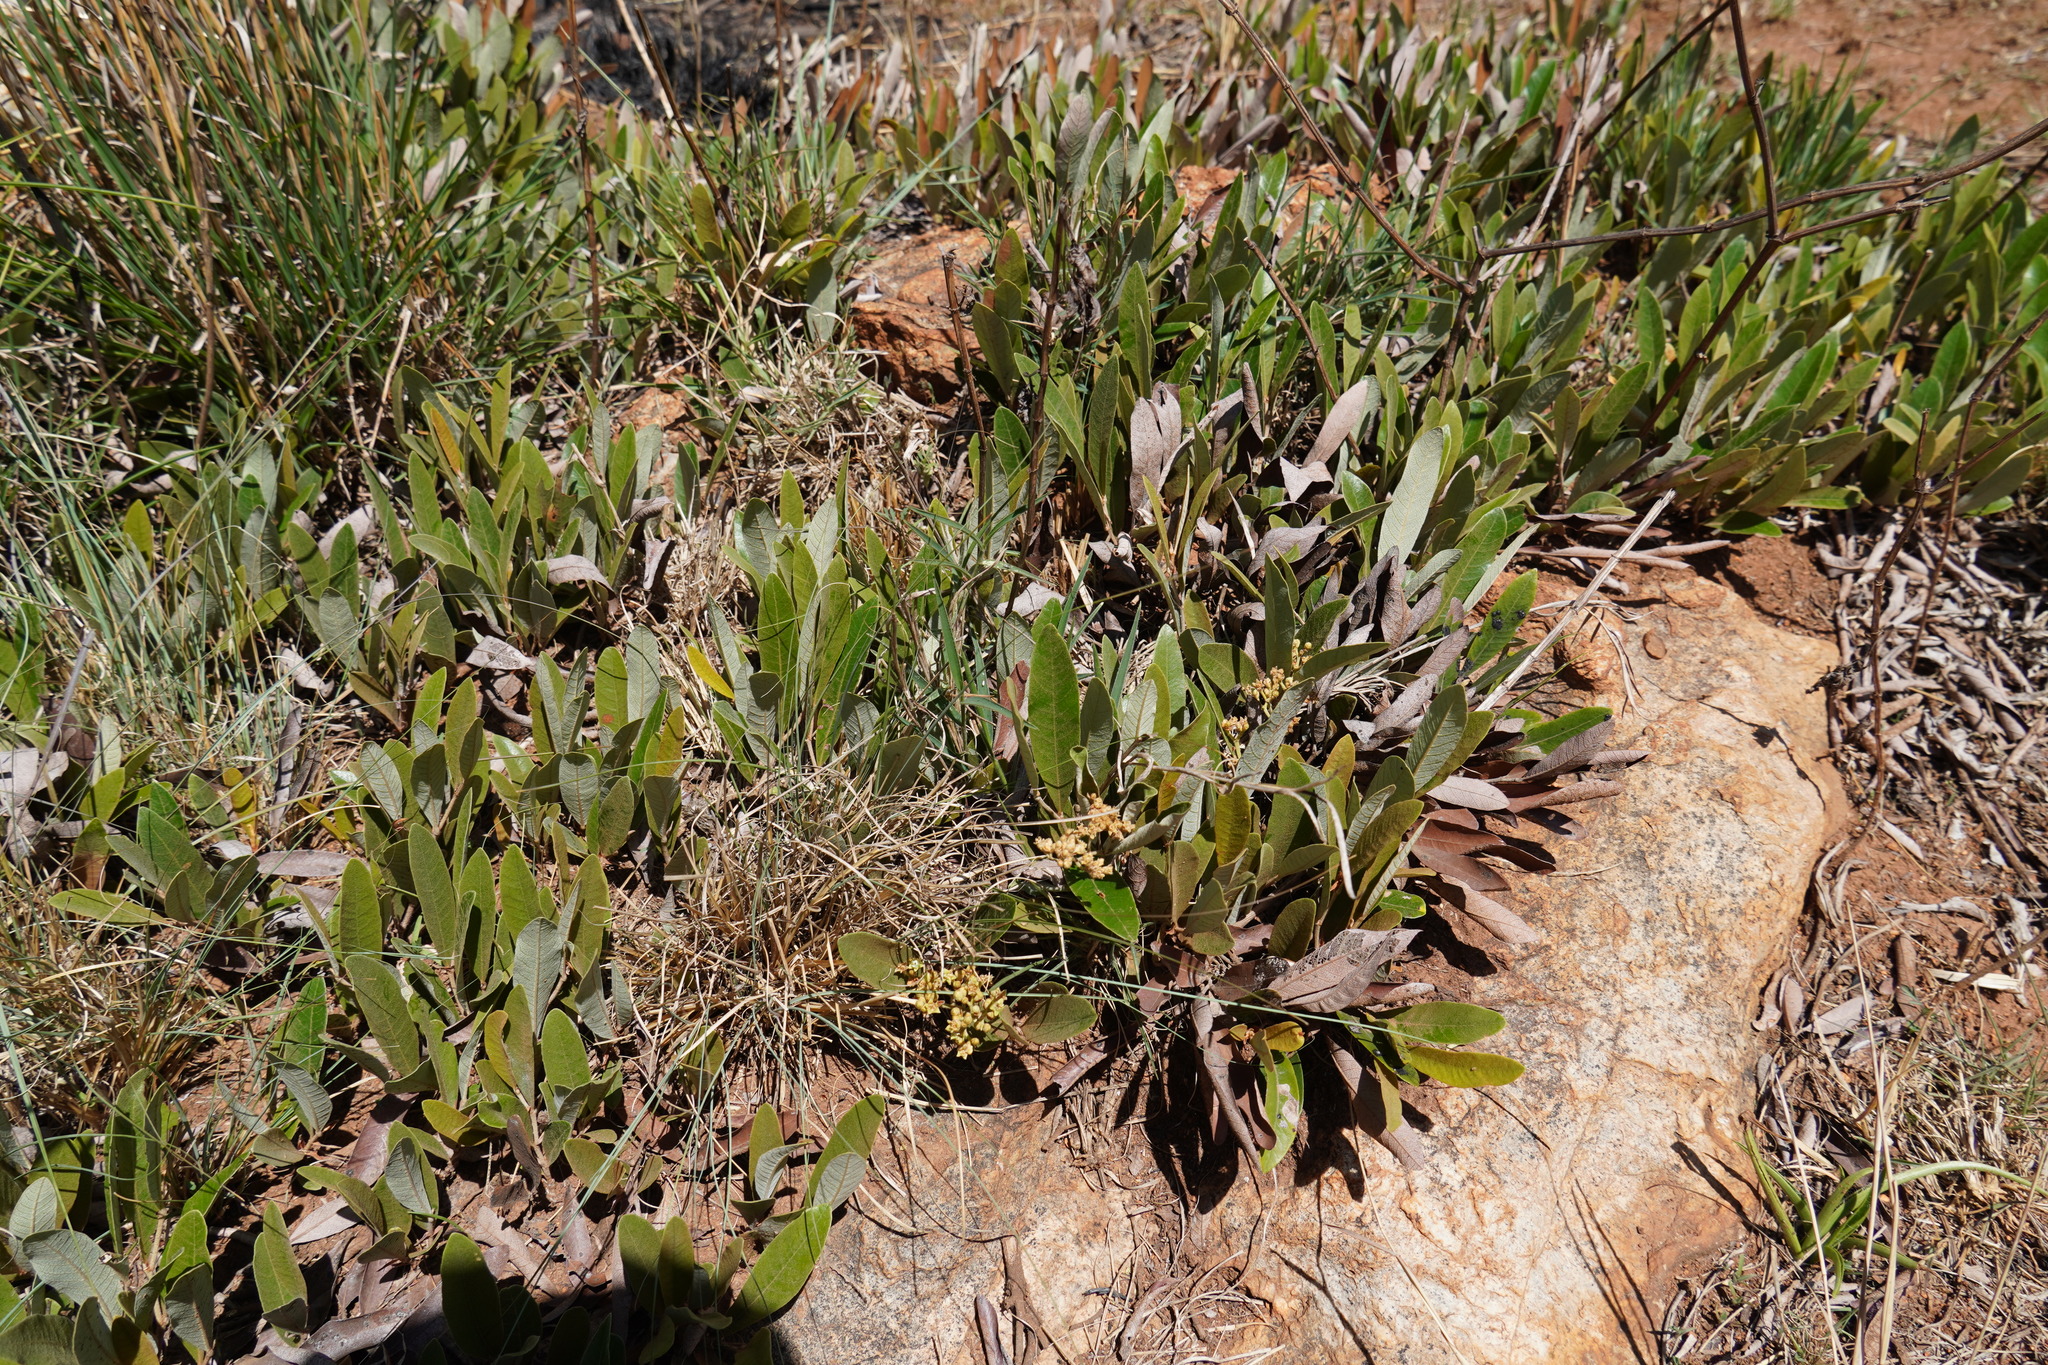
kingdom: Plantae
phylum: Tracheophyta
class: Magnoliopsida
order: Malpighiales
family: Chrysobalanaceae
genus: Parinari
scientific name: Parinari capensis
